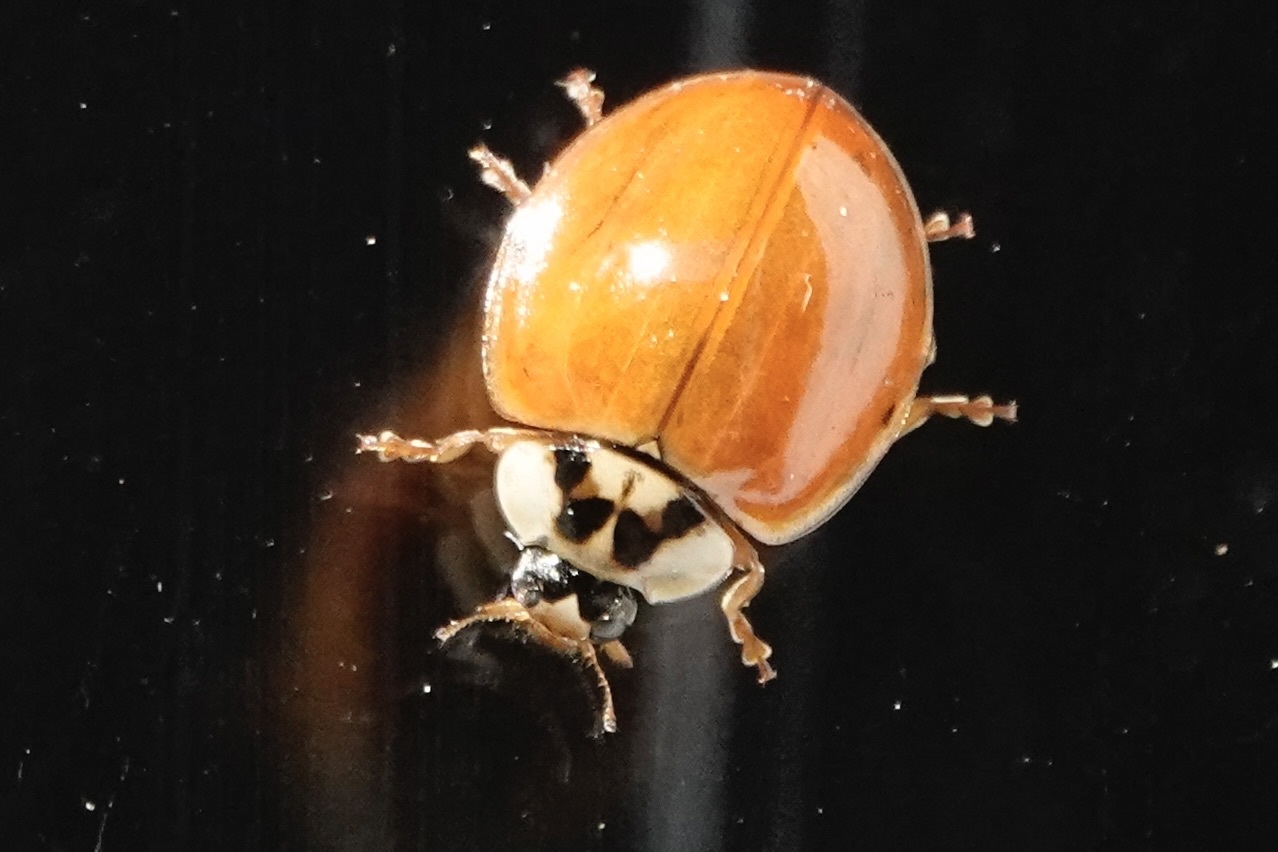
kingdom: Animalia
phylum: Arthropoda
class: Insecta
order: Coleoptera
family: Coccinellidae
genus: Harmonia
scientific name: Harmonia axyridis
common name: Harlequin ladybird
